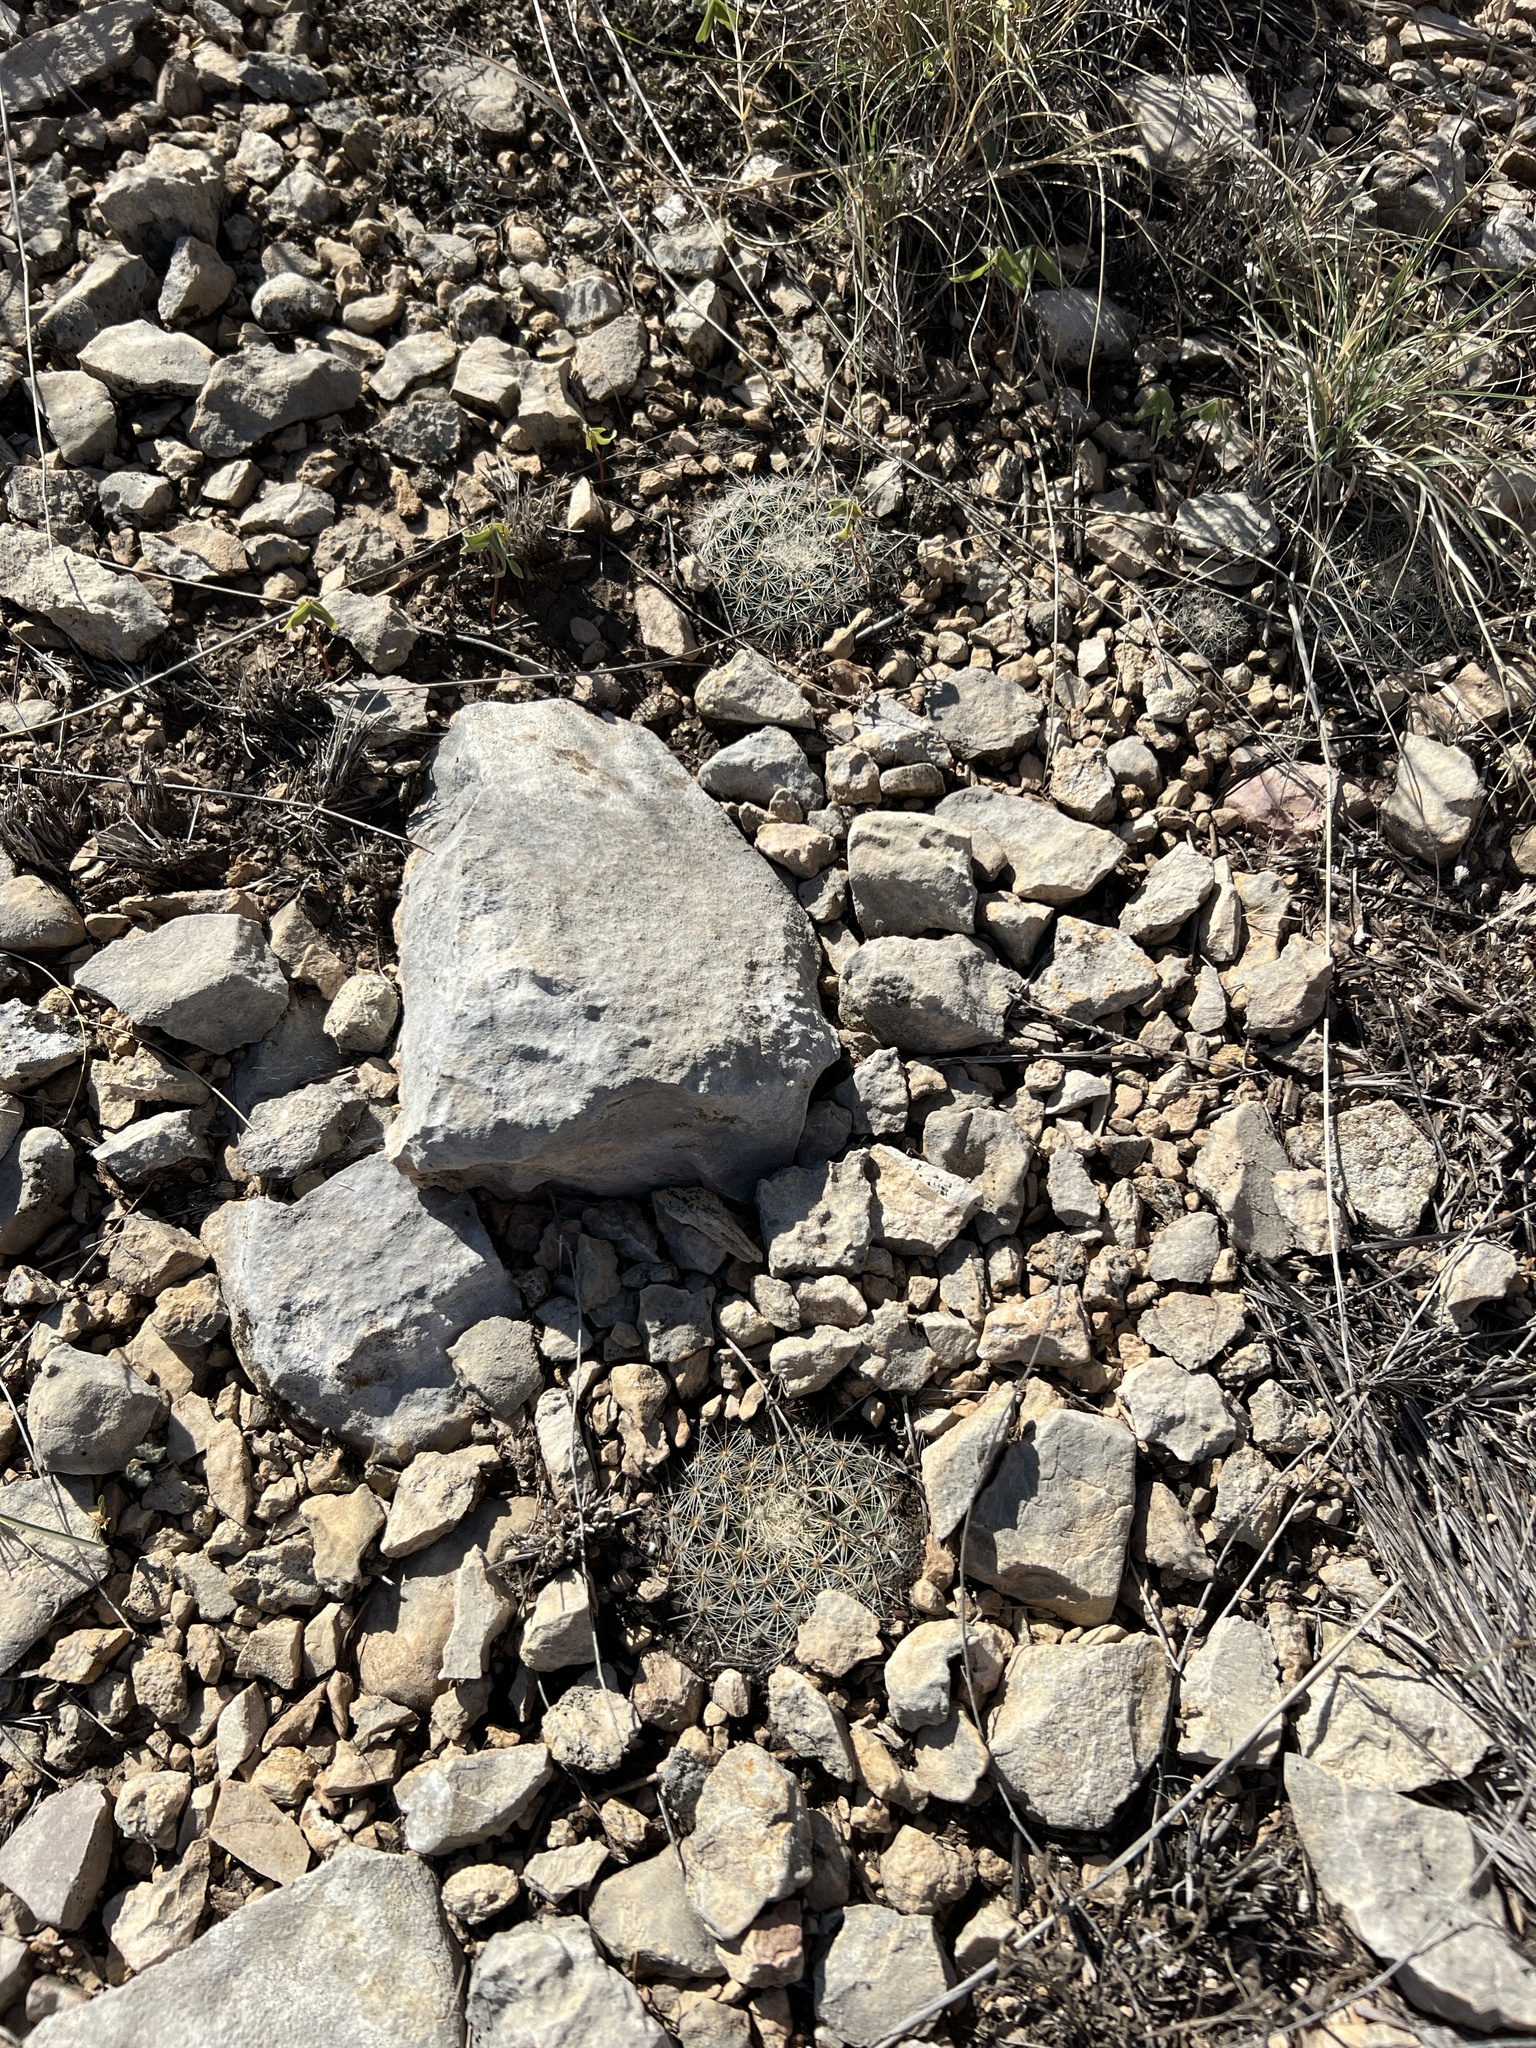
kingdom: Plantae
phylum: Tracheophyta
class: Magnoliopsida
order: Caryophyllales
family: Cactaceae
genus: Mammillaria
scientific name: Mammillaria heyderi
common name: Little nipple cactus
